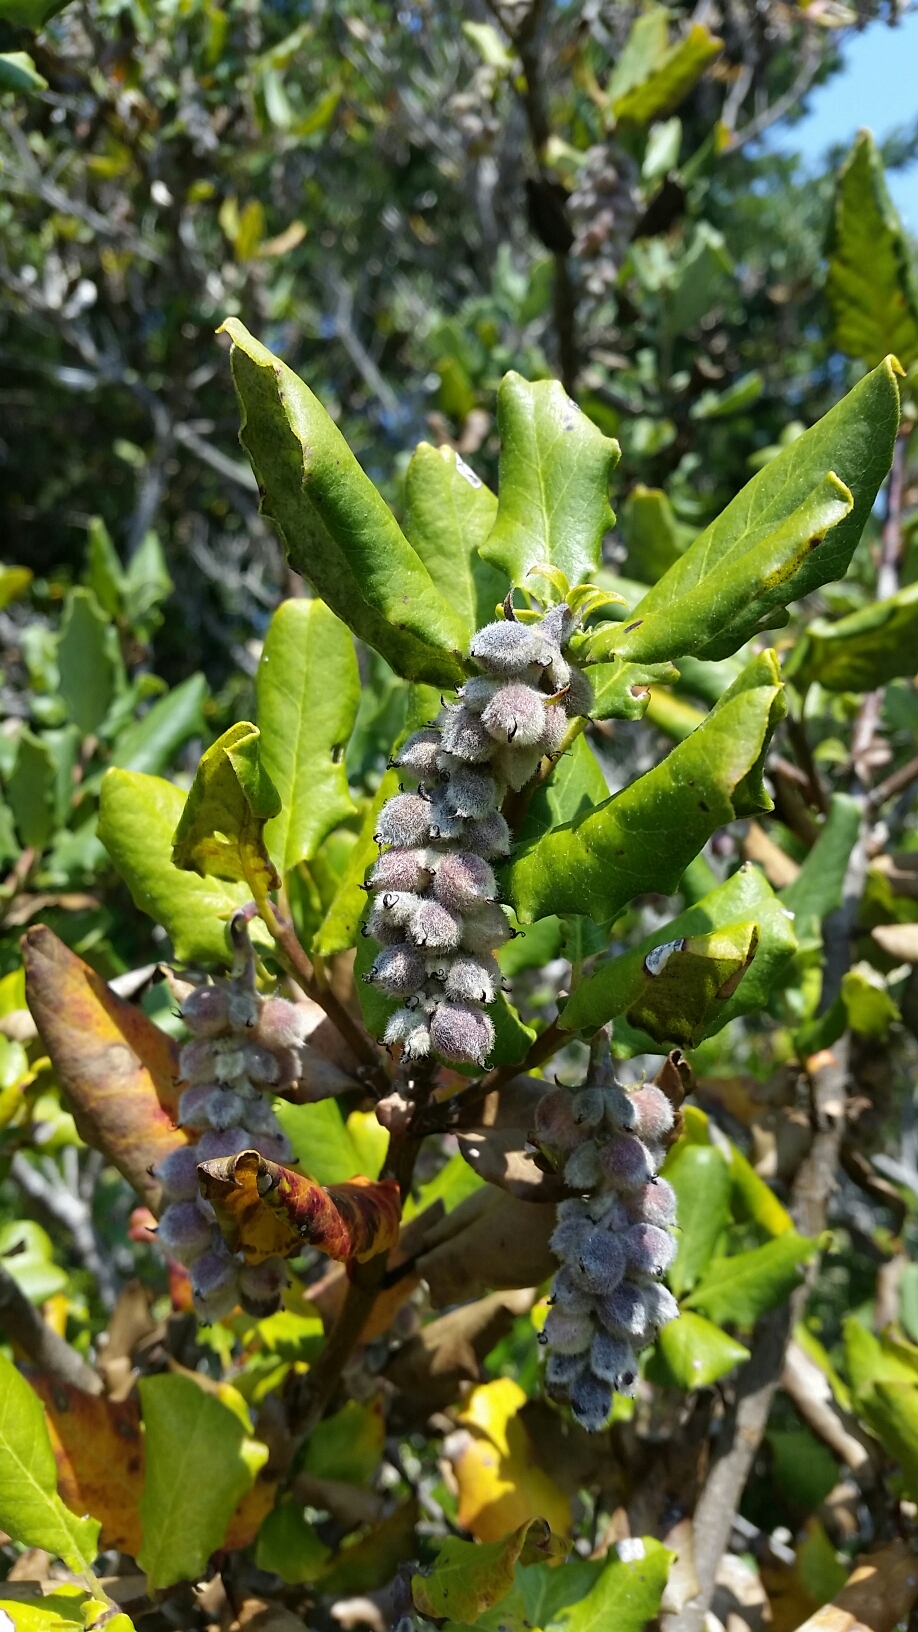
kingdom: Plantae
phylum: Tracheophyta
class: Magnoliopsida
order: Garryales
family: Garryaceae
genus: Garrya
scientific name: Garrya elliptica
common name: Silk-tassel
